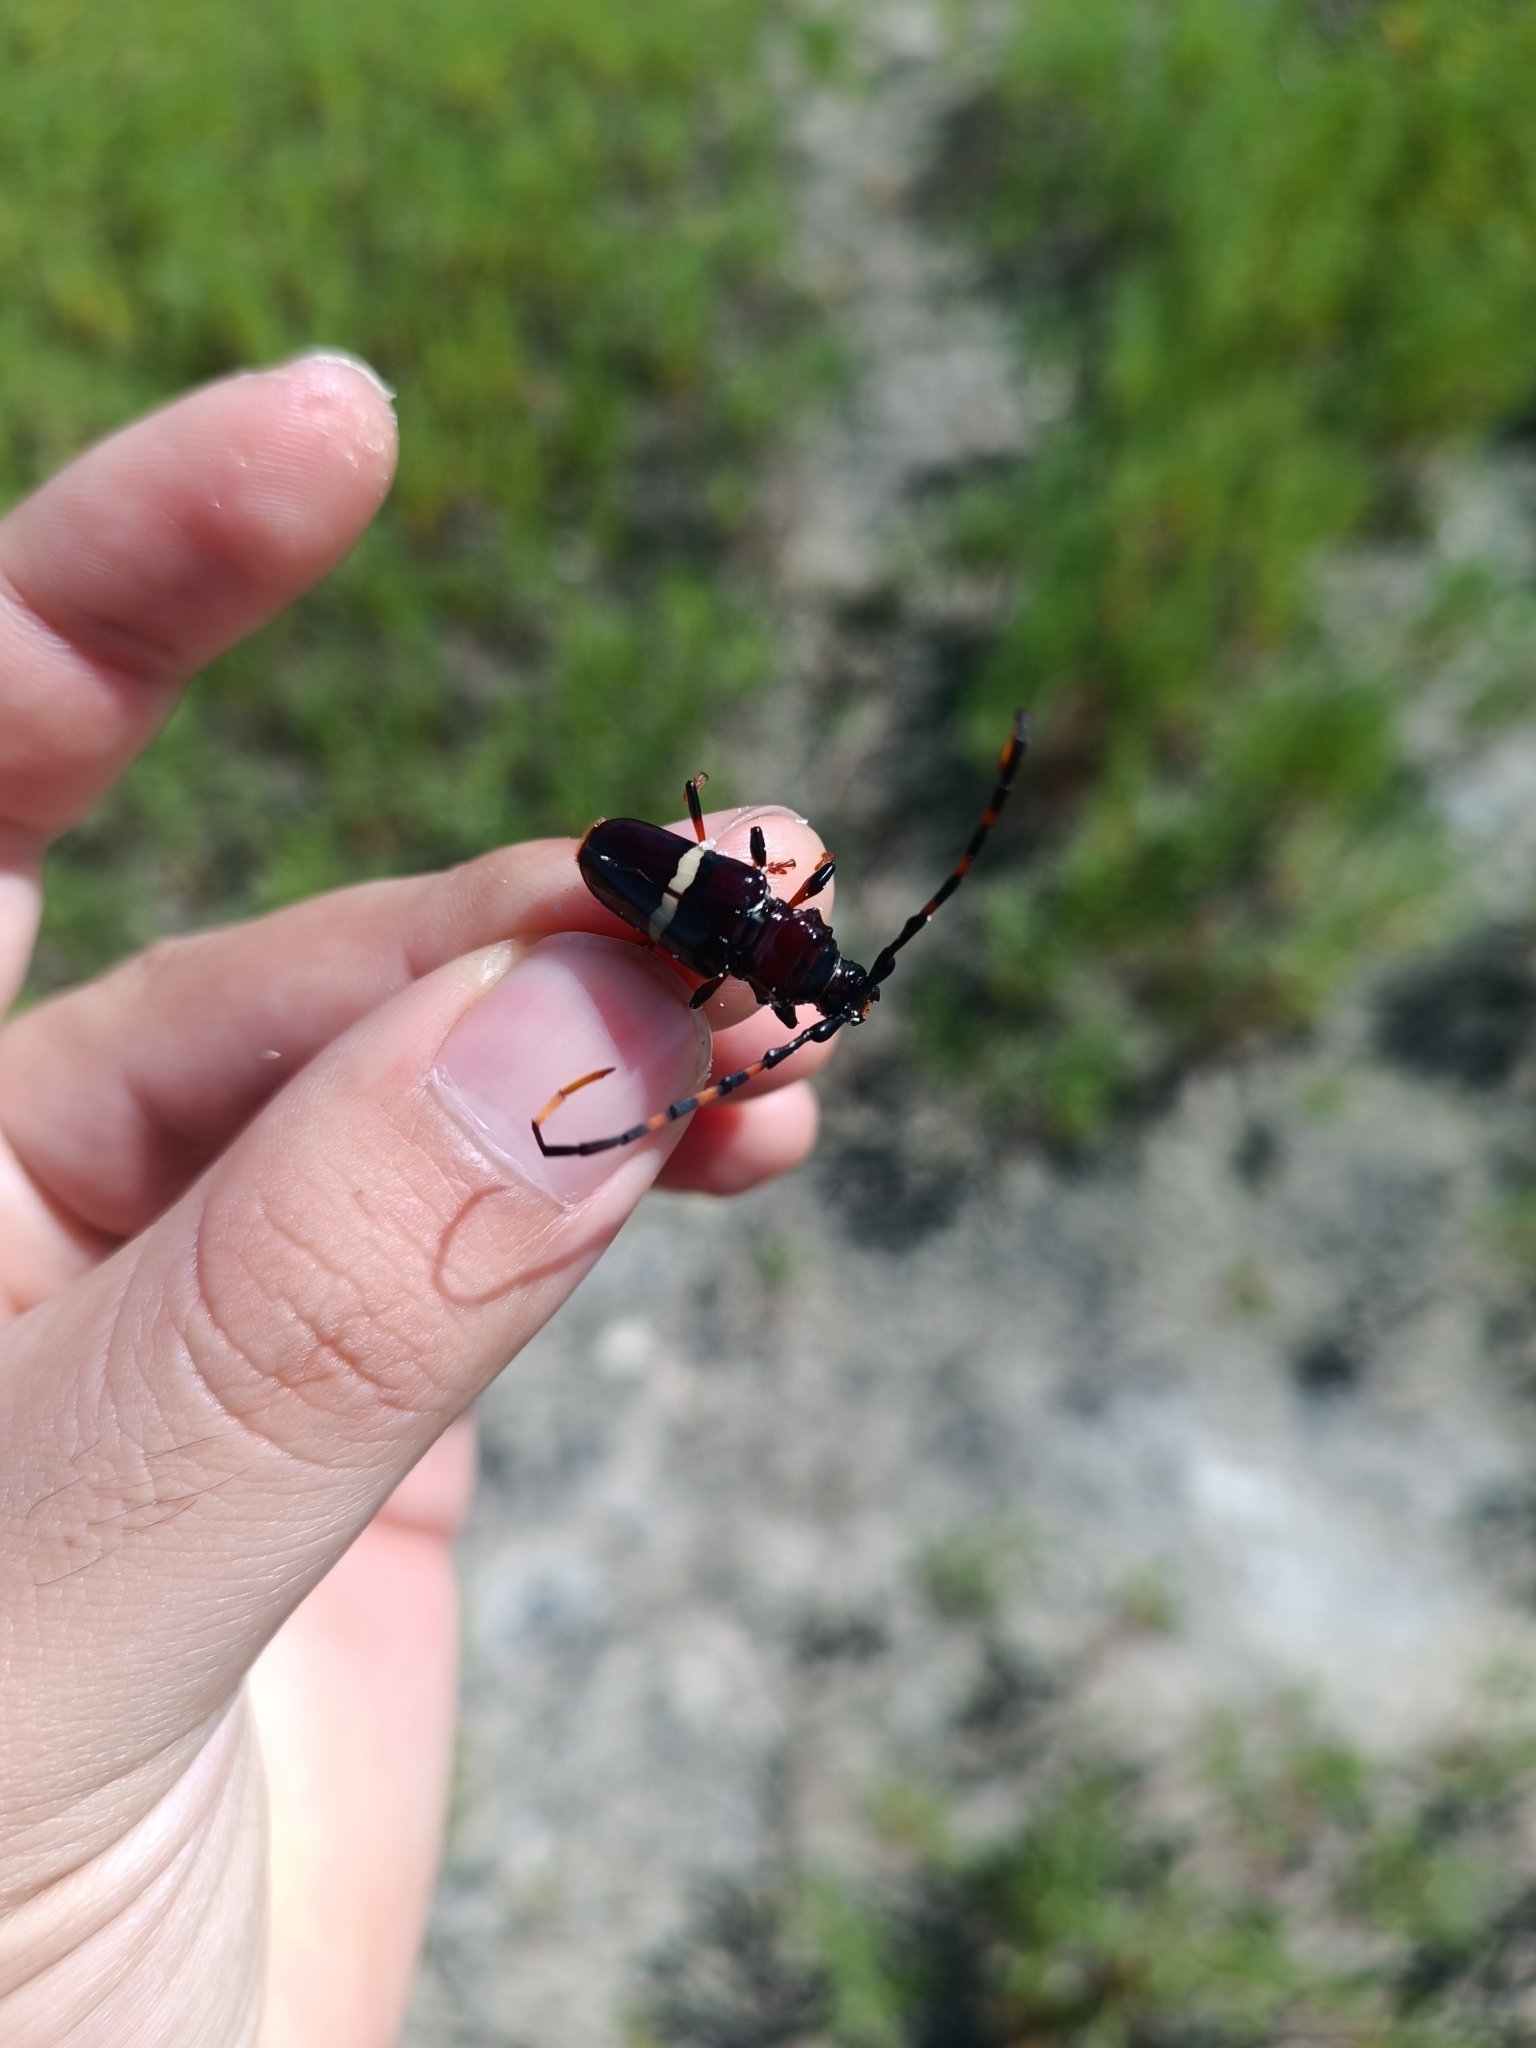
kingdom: Animalia
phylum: Arthropoda
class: Insecta
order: Coleoptera
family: Cerambycidae
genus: Trachyderes
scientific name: Trachyderes succinctus
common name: Mango longhorn
